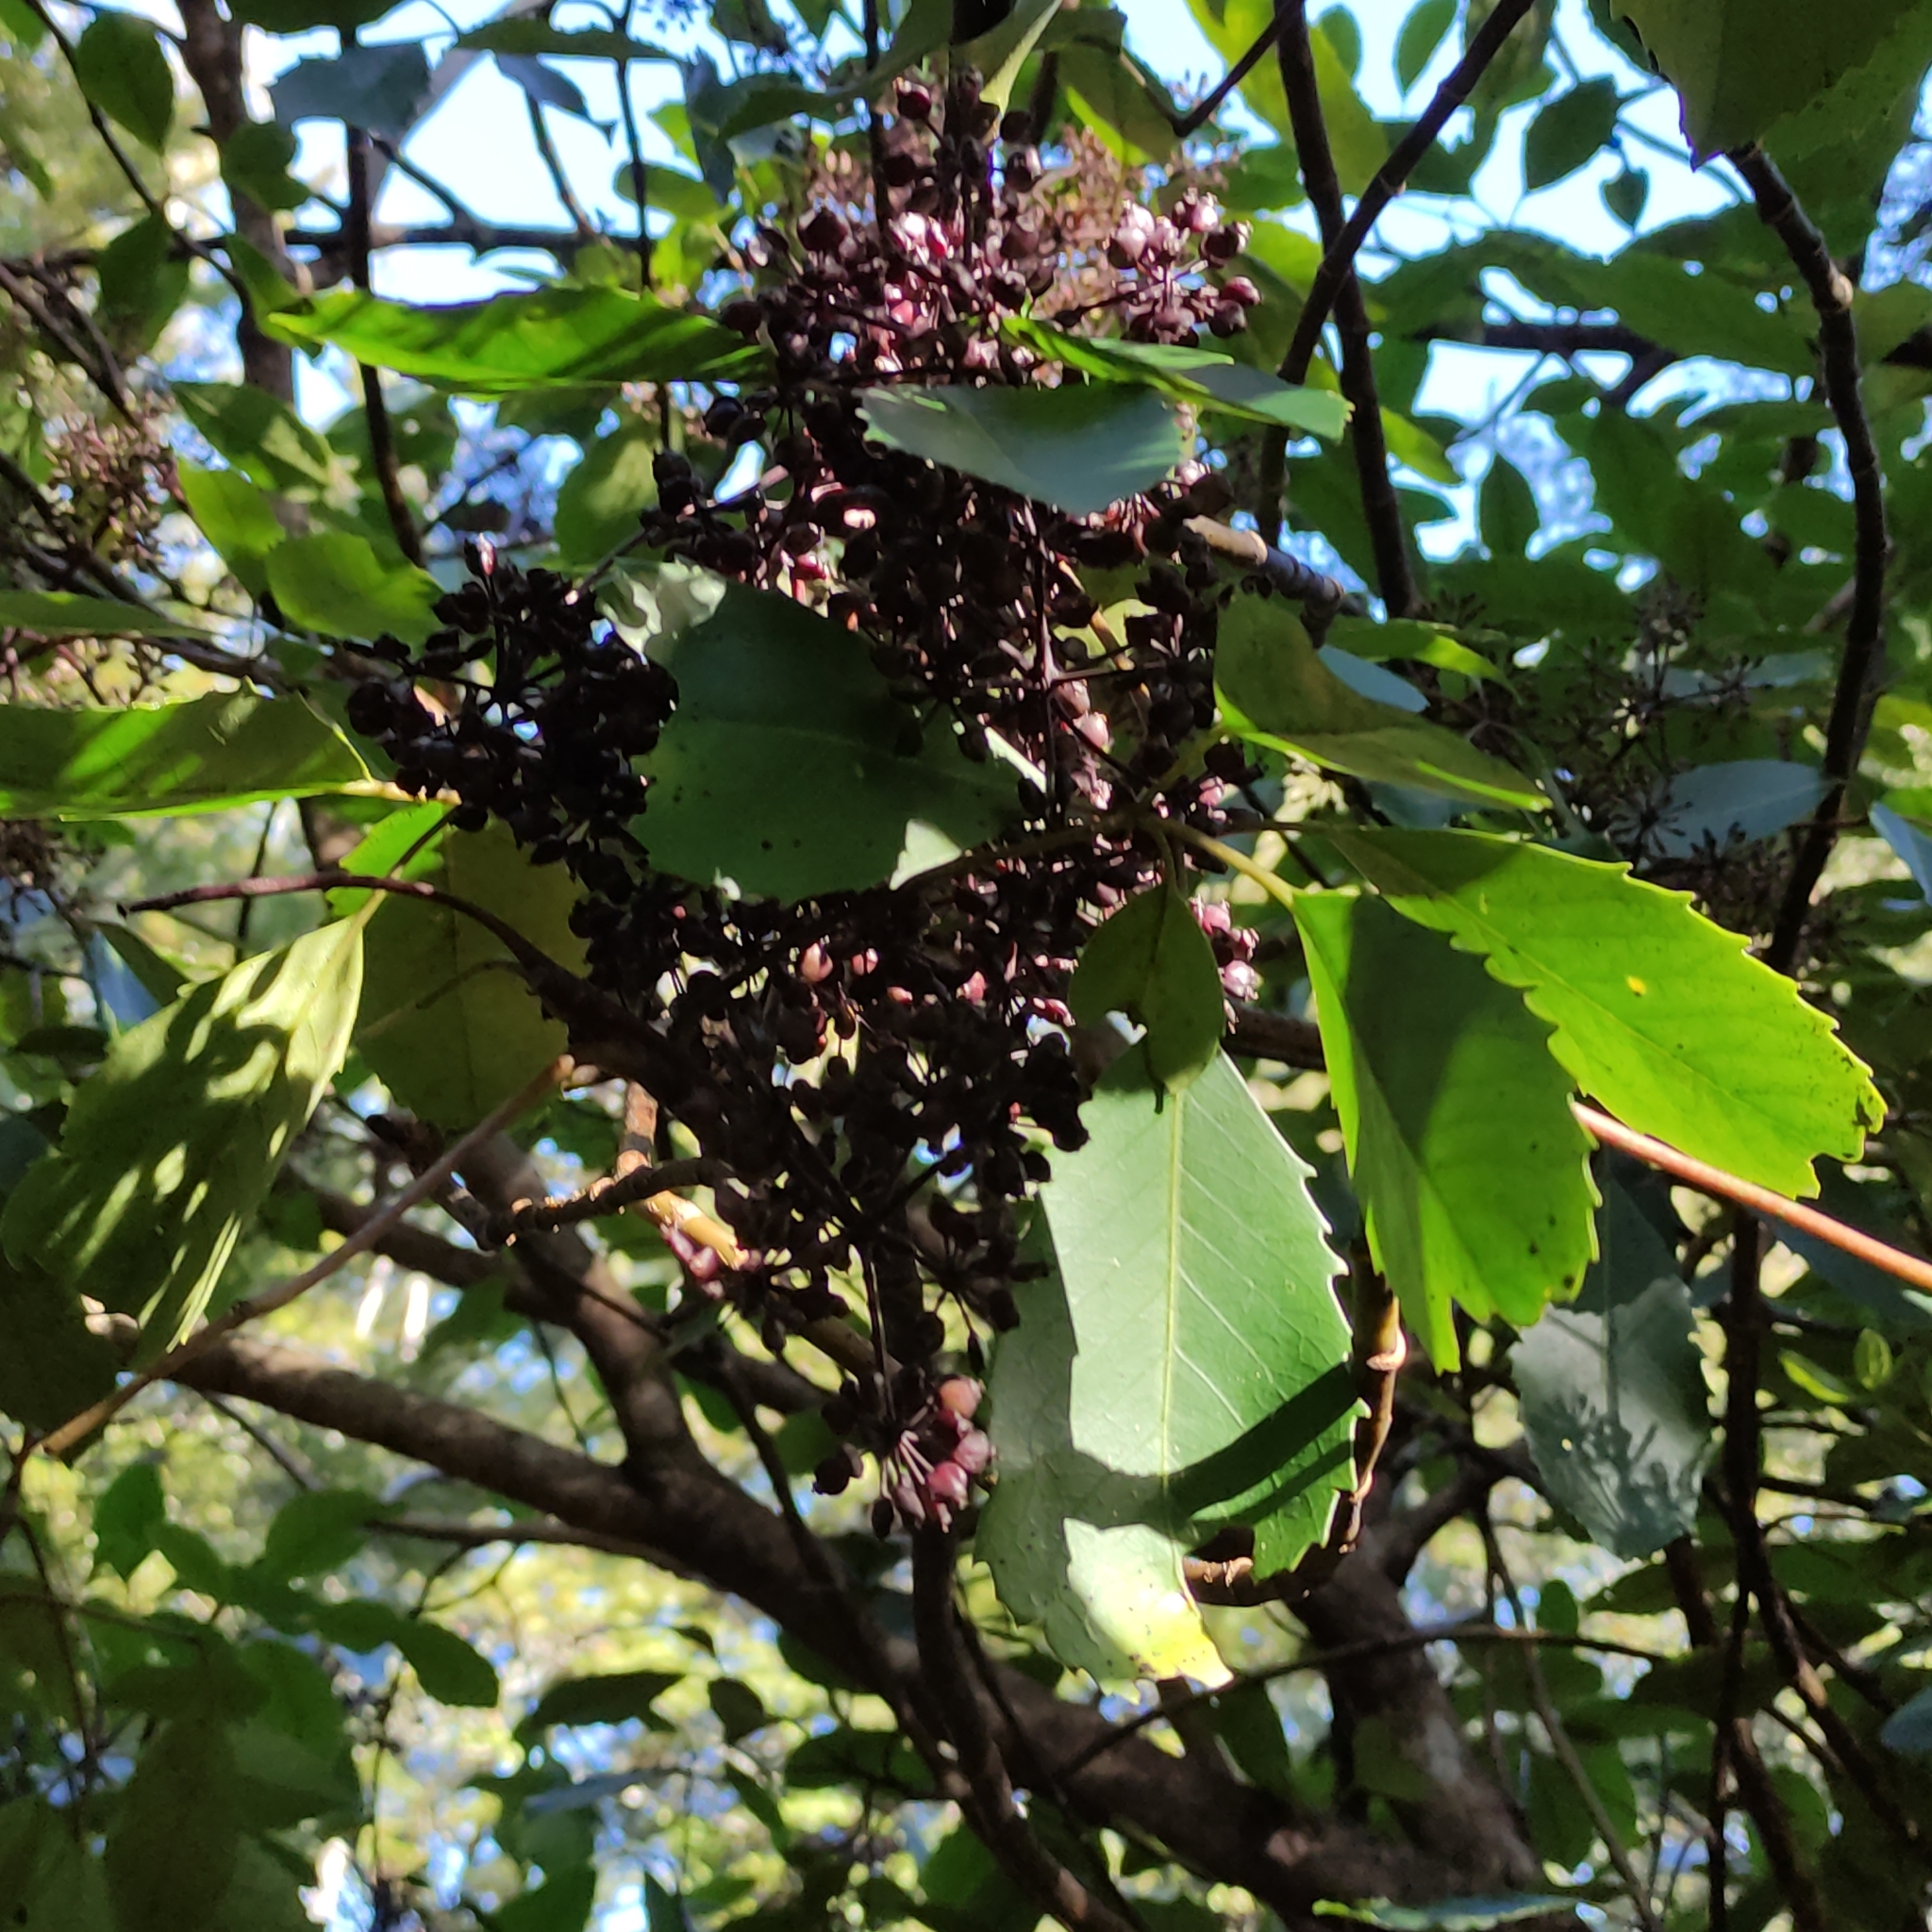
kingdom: Plantae
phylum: Tracheophyta
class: Magnoliopsida
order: Apiales
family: Araliaceae
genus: Neopanax
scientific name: Neopanax arboreus
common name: Five-fingers
